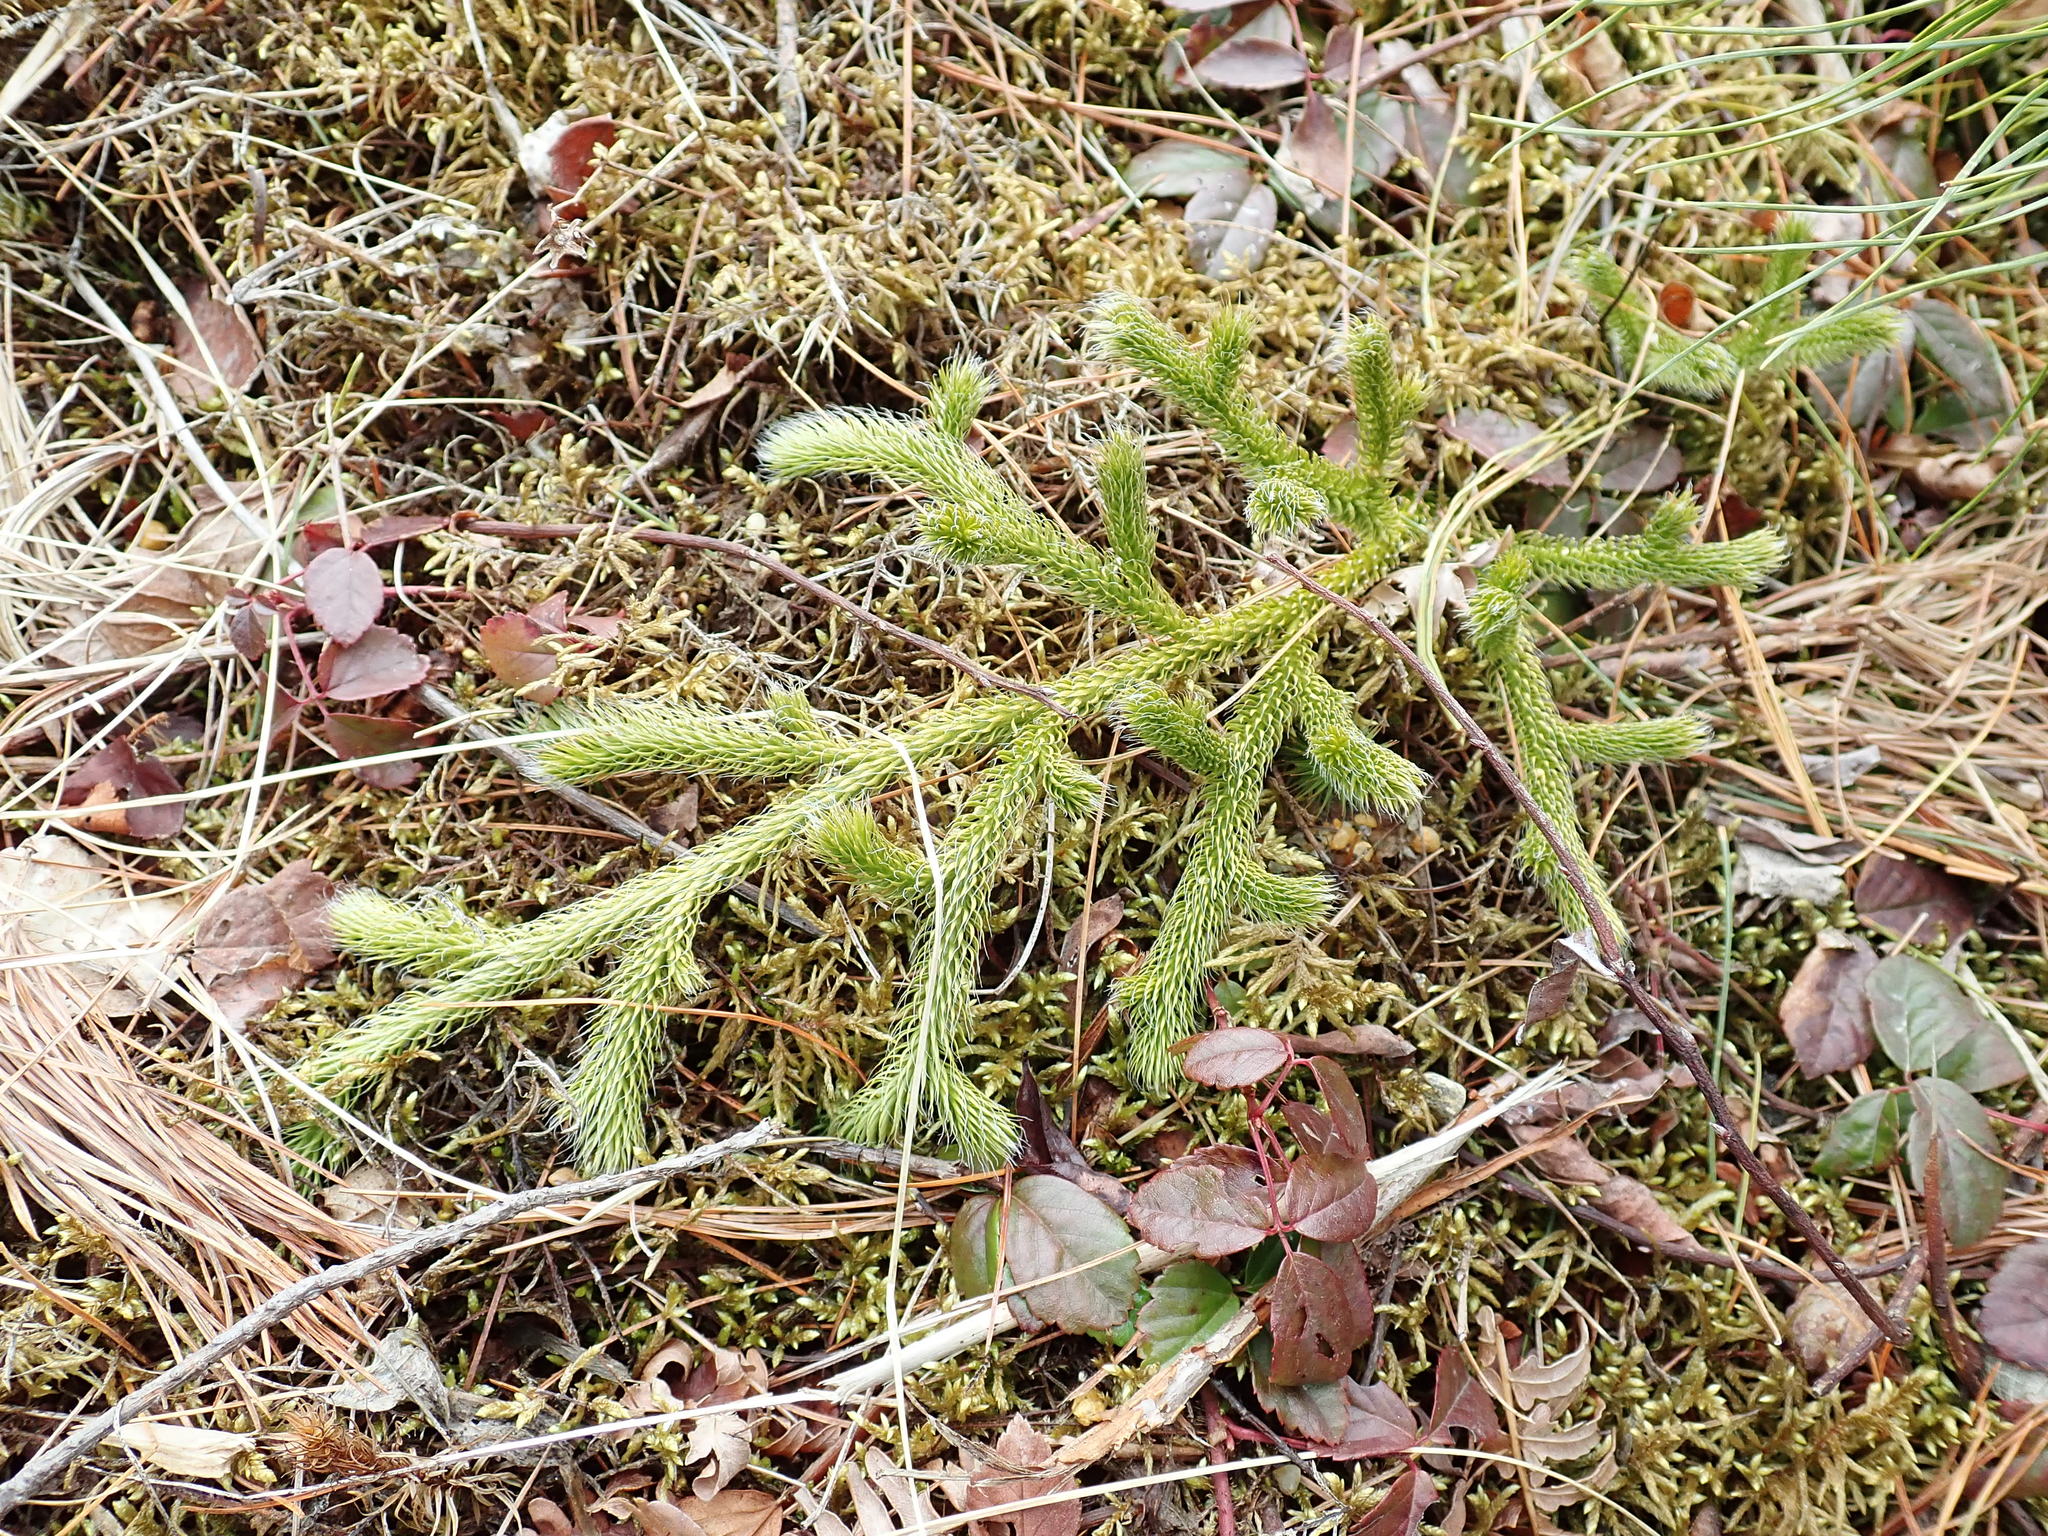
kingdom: Plantae
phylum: Tracheophyta
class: Lycopodiopsida
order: Lycopodiales
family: Lycopodiaceae
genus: Lycopodium
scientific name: Lycopodium clavatum
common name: Stag's-horn clubmoss
